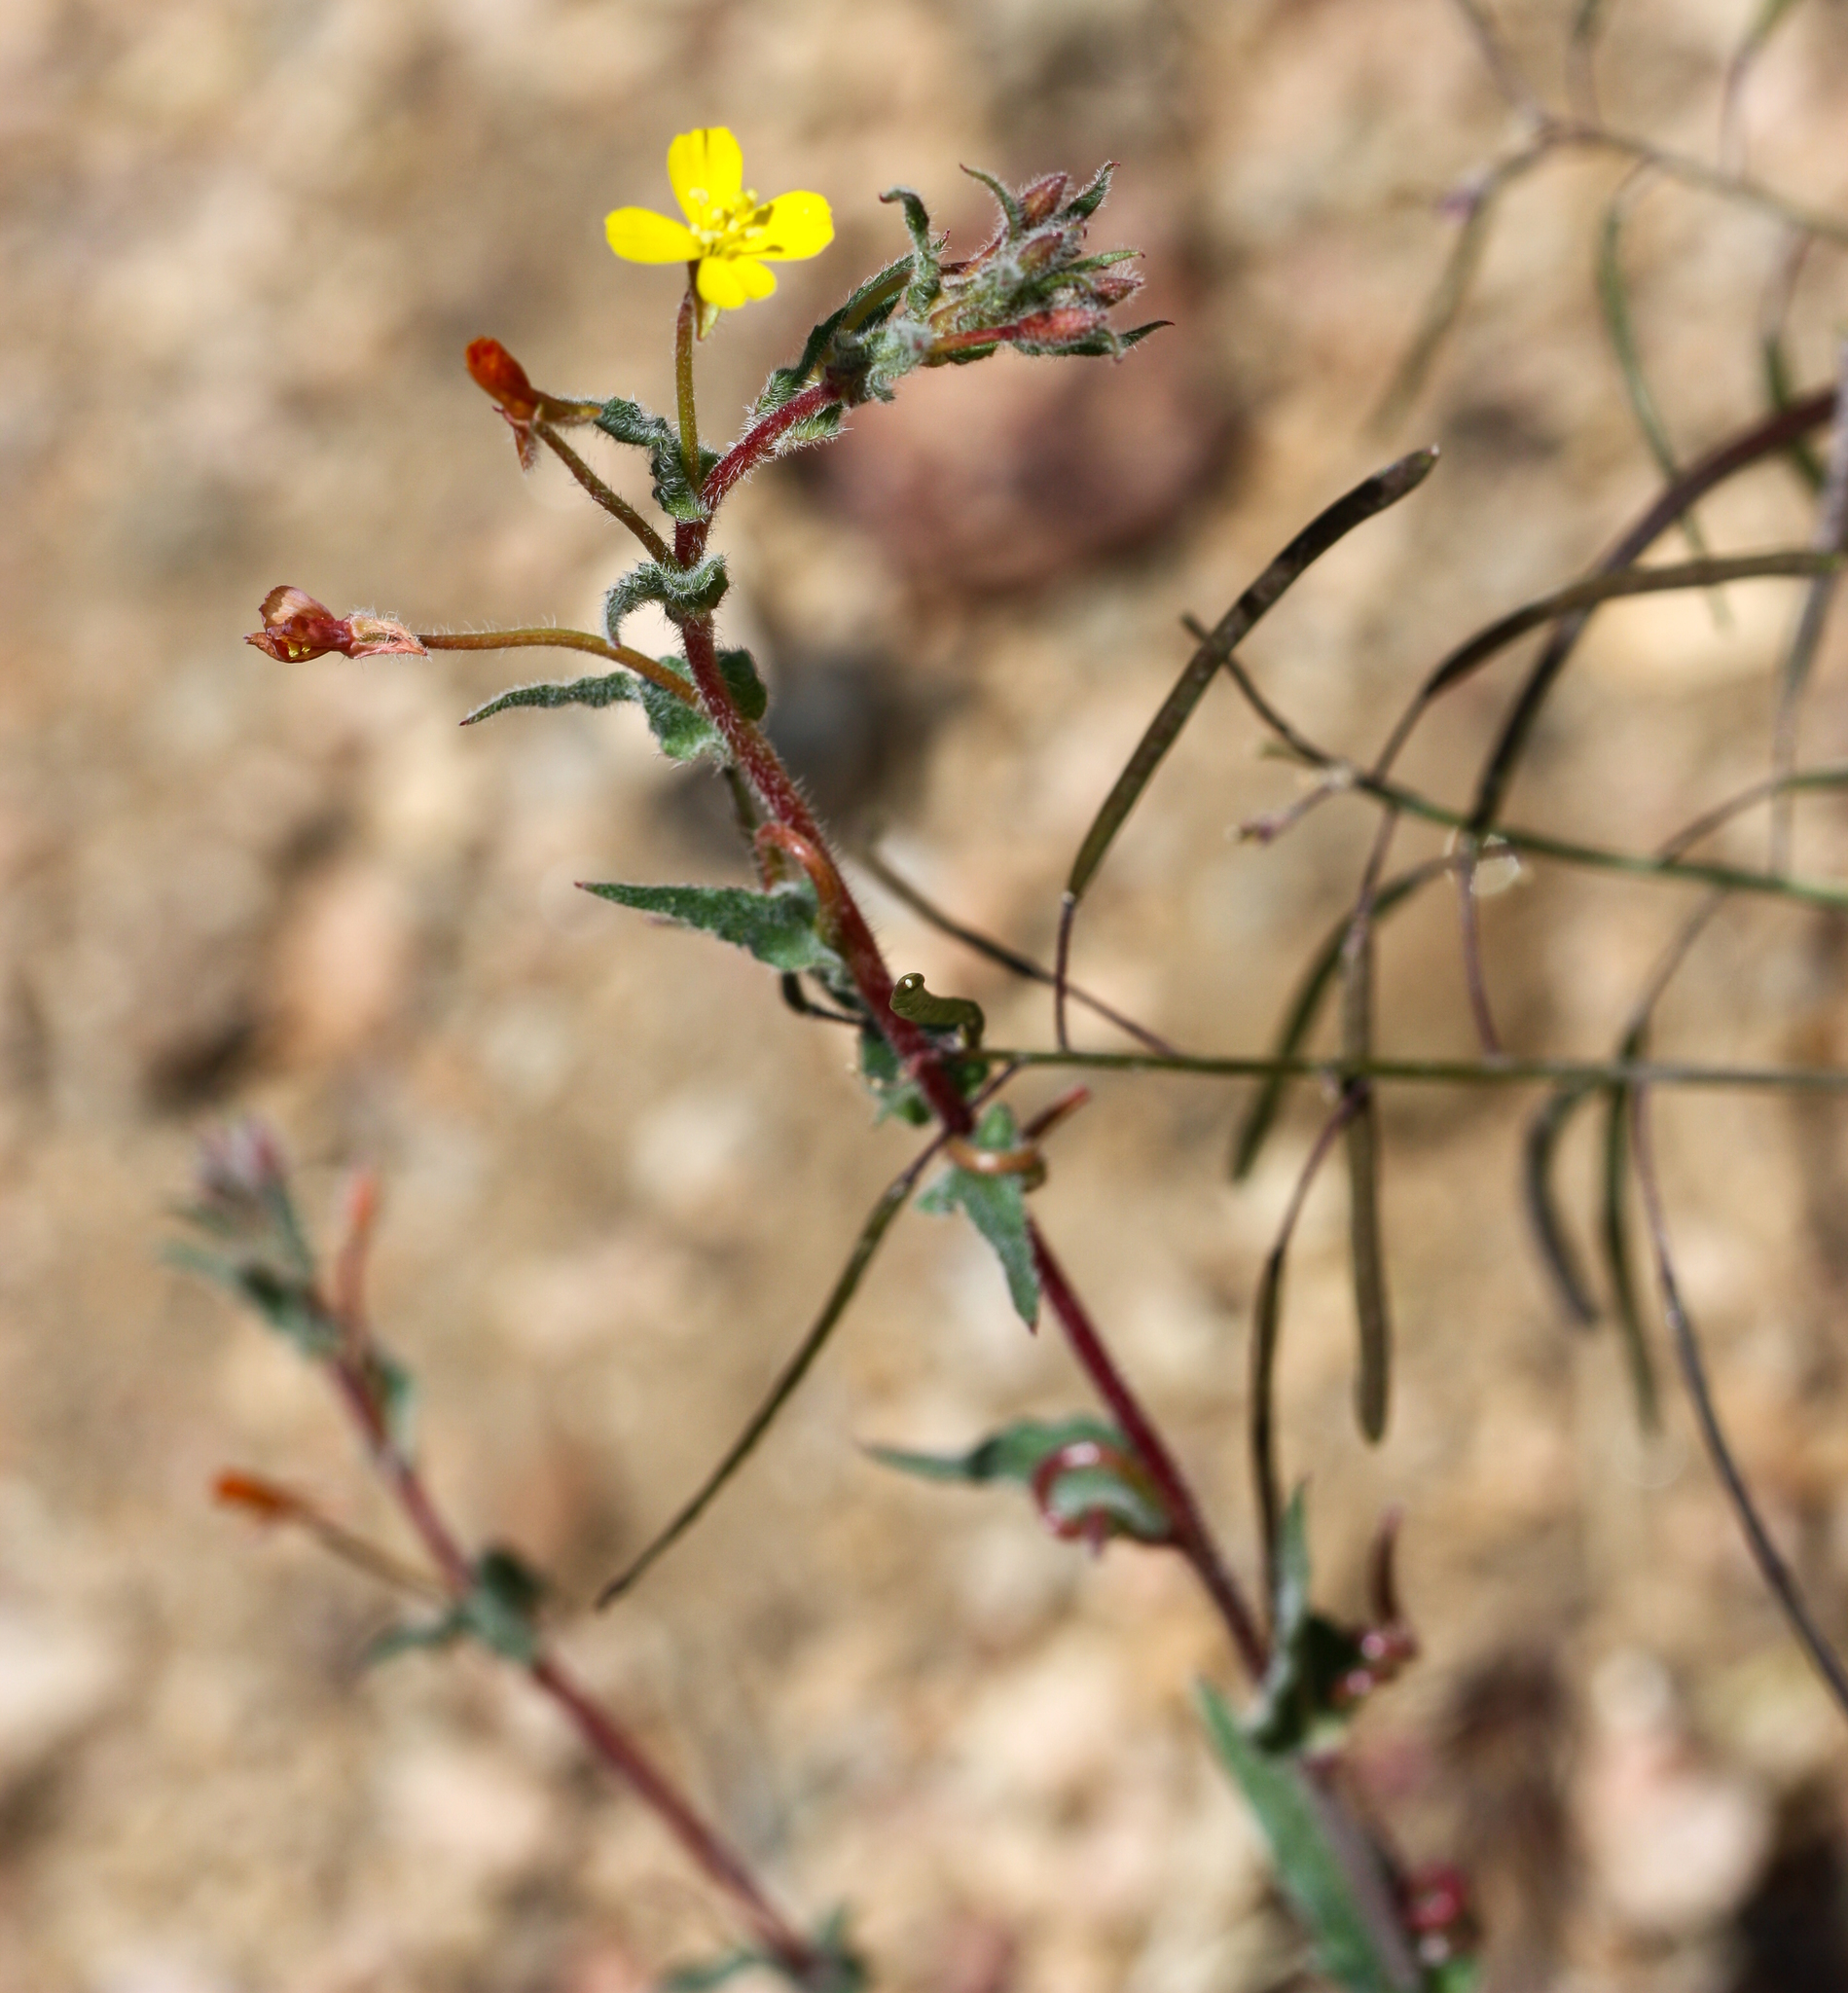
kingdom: Plantae
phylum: Tracheophyta
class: Magnoliopsida
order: Myrtales
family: Onagraceae
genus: Camissoniopsis
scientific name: Camissoniopsis micrantha
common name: Miniature suncup
